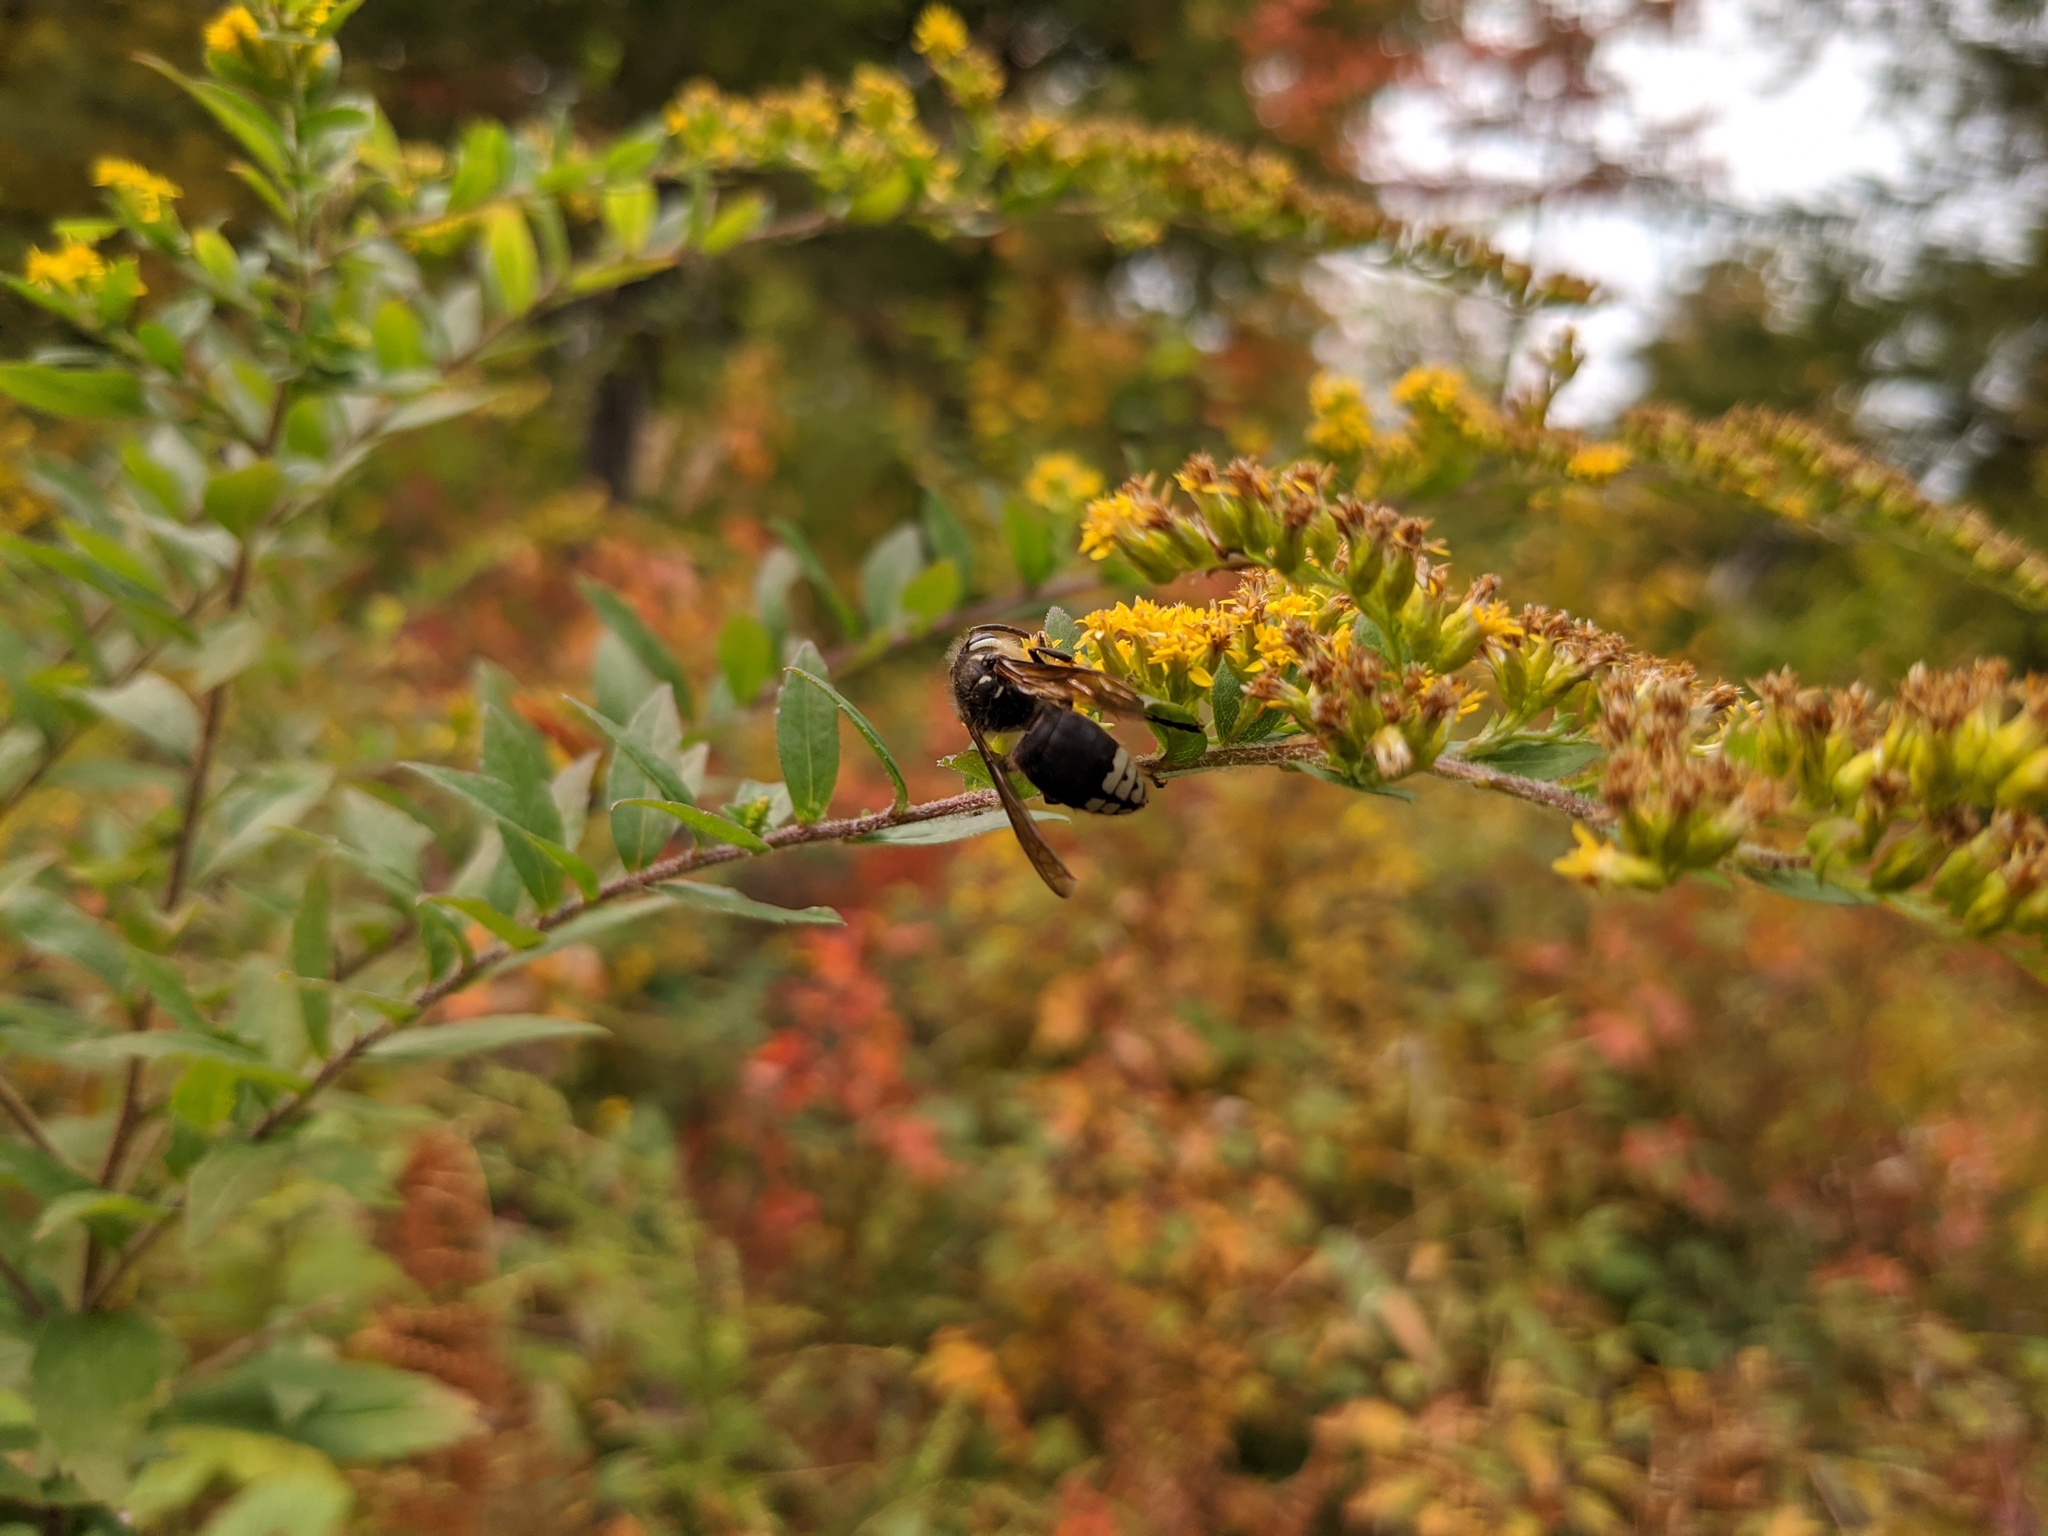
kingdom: Animalia
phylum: Arthropoda
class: Insecta
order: Hymenoptera
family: Vespidae
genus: Dolichovespula
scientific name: Dolichovespula maculata
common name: Bald-faced hornet
